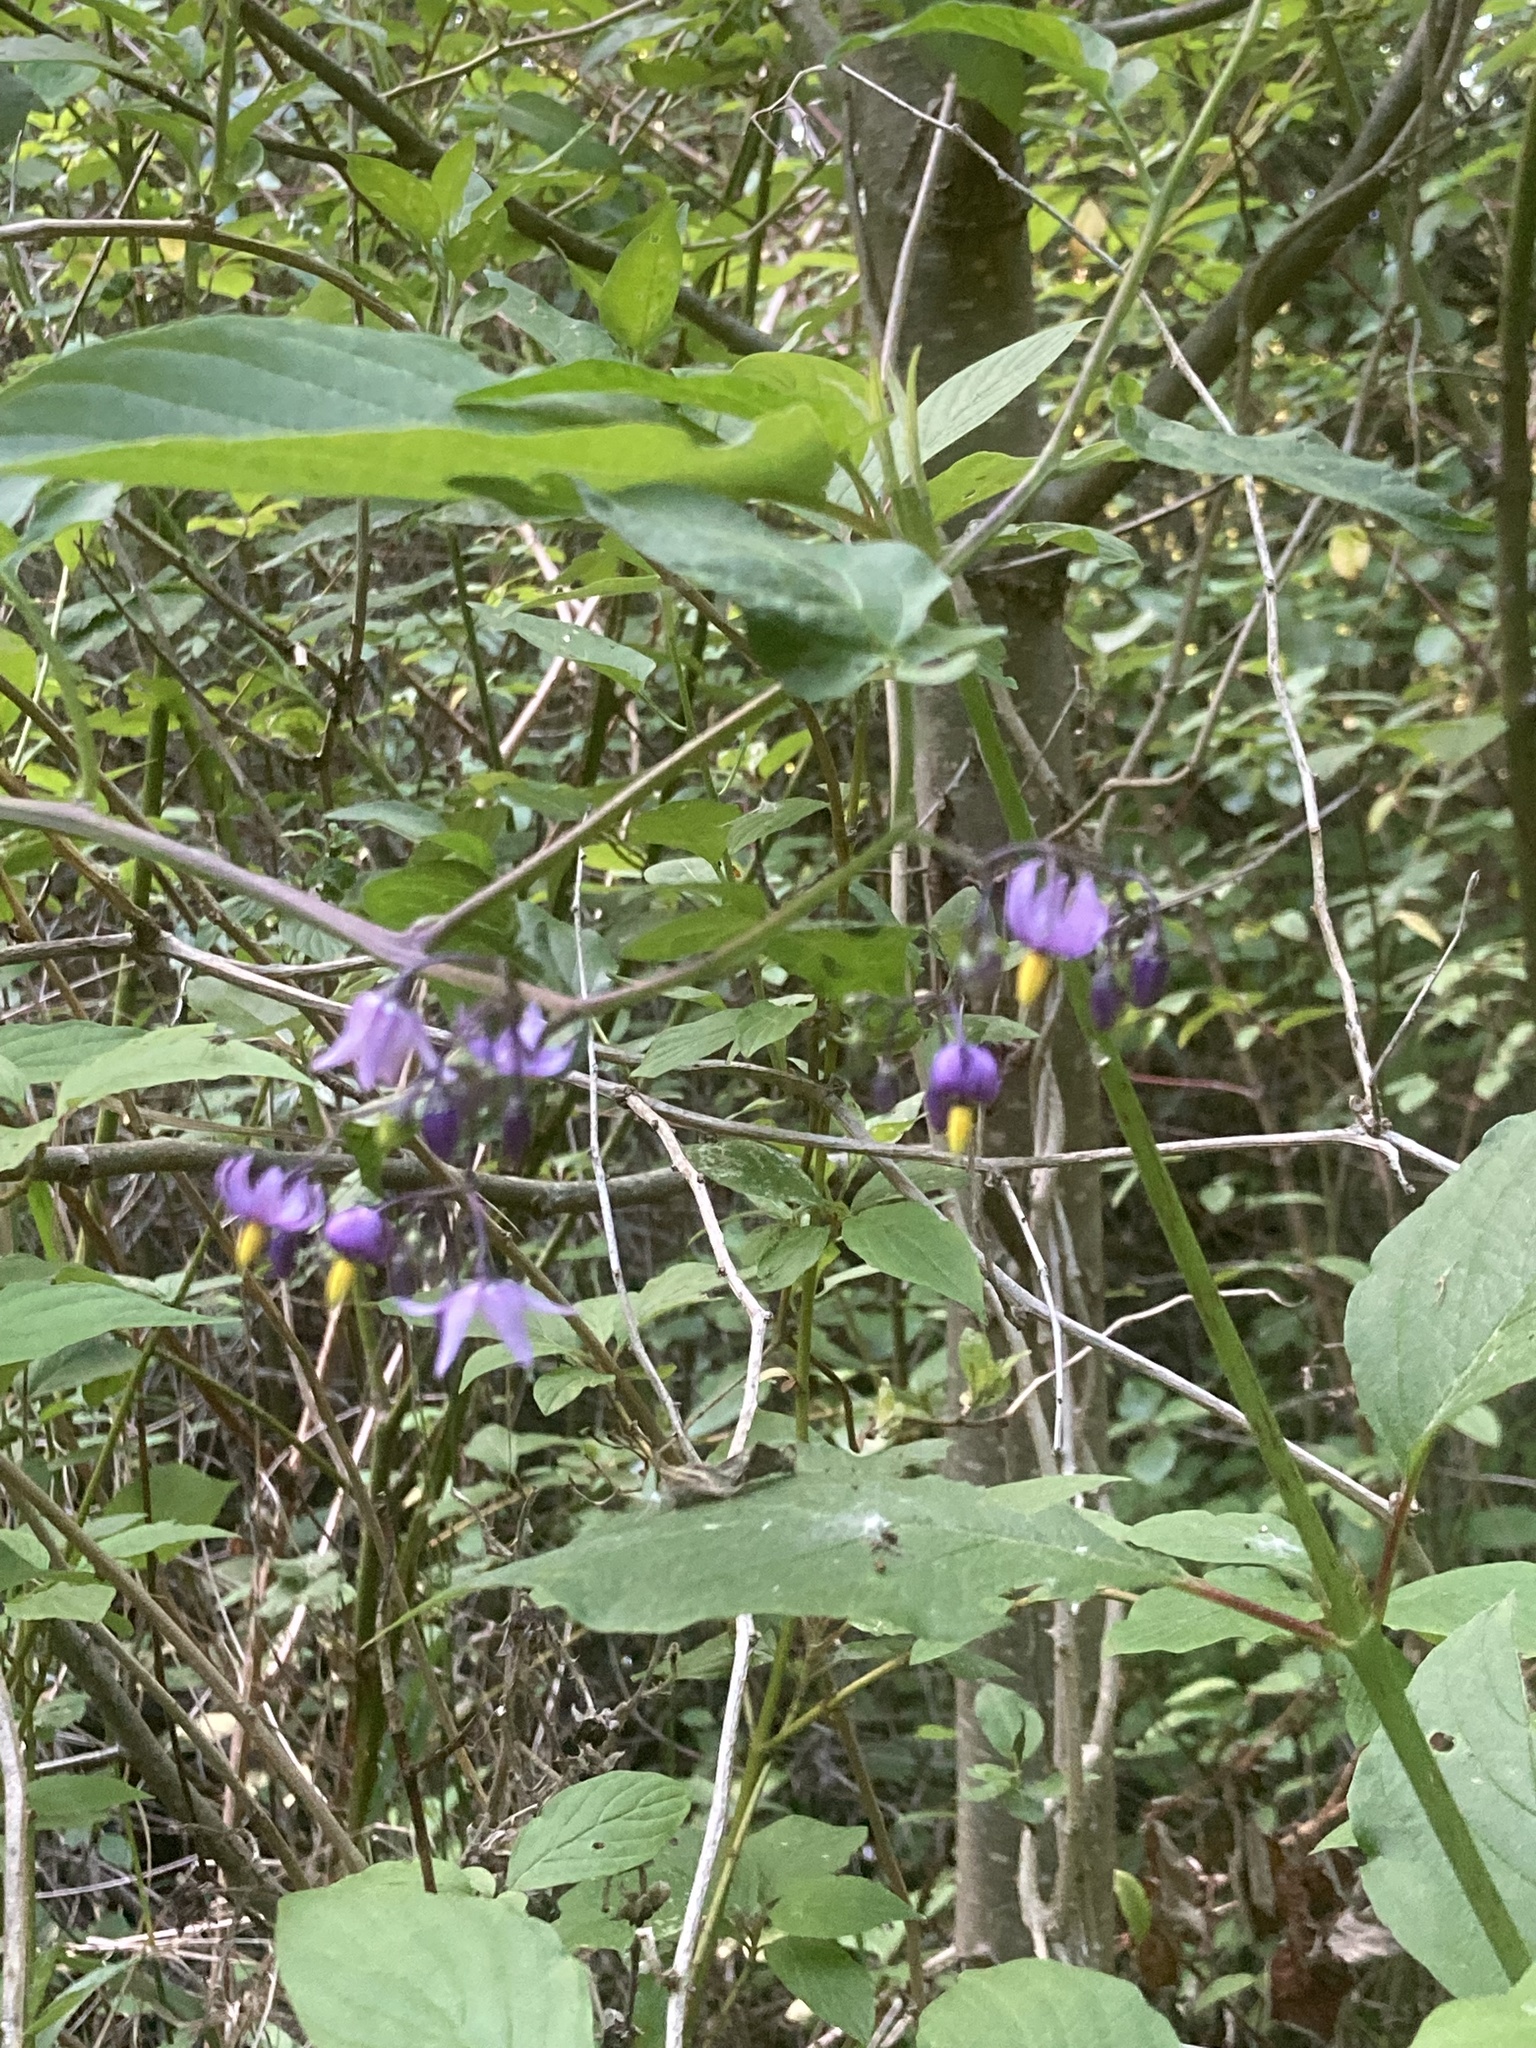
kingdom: Plantae
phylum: Tracheophyta
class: Magnoliopsida
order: Solanales
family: Solanaceae
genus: Solanum
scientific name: Solanum dulcamara
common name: Climbing nightshade
